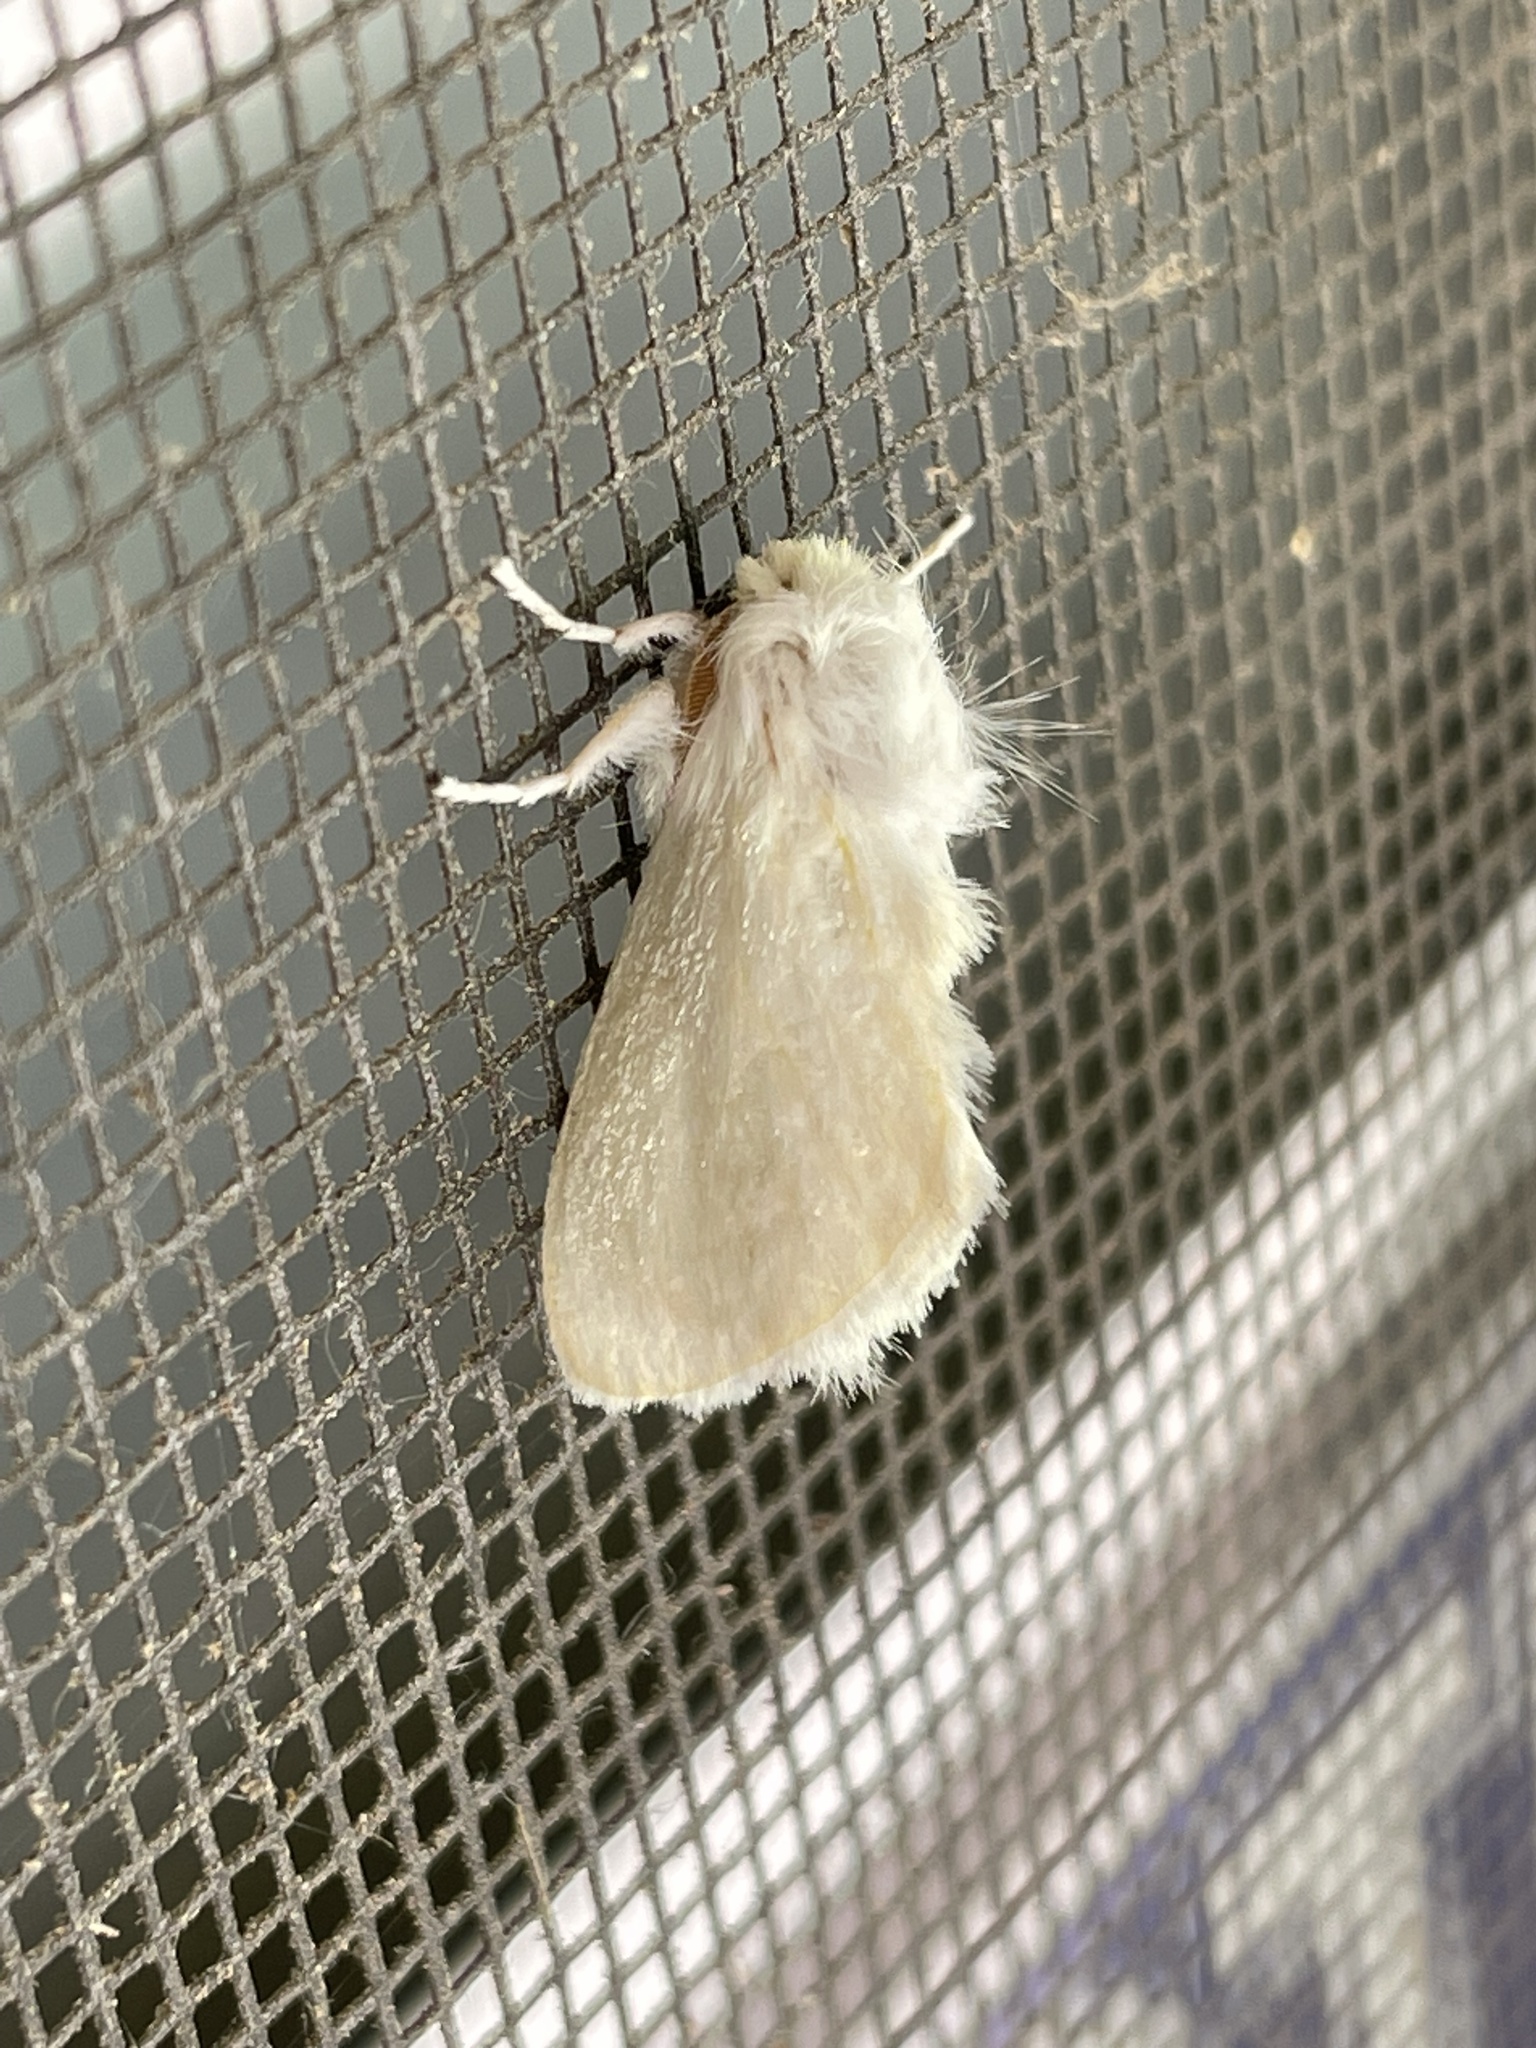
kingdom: Animalia
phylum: Arthropoda
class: Insecta
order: Lepidoptera
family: Megalopygidae
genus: Norape
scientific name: Norape cretata
